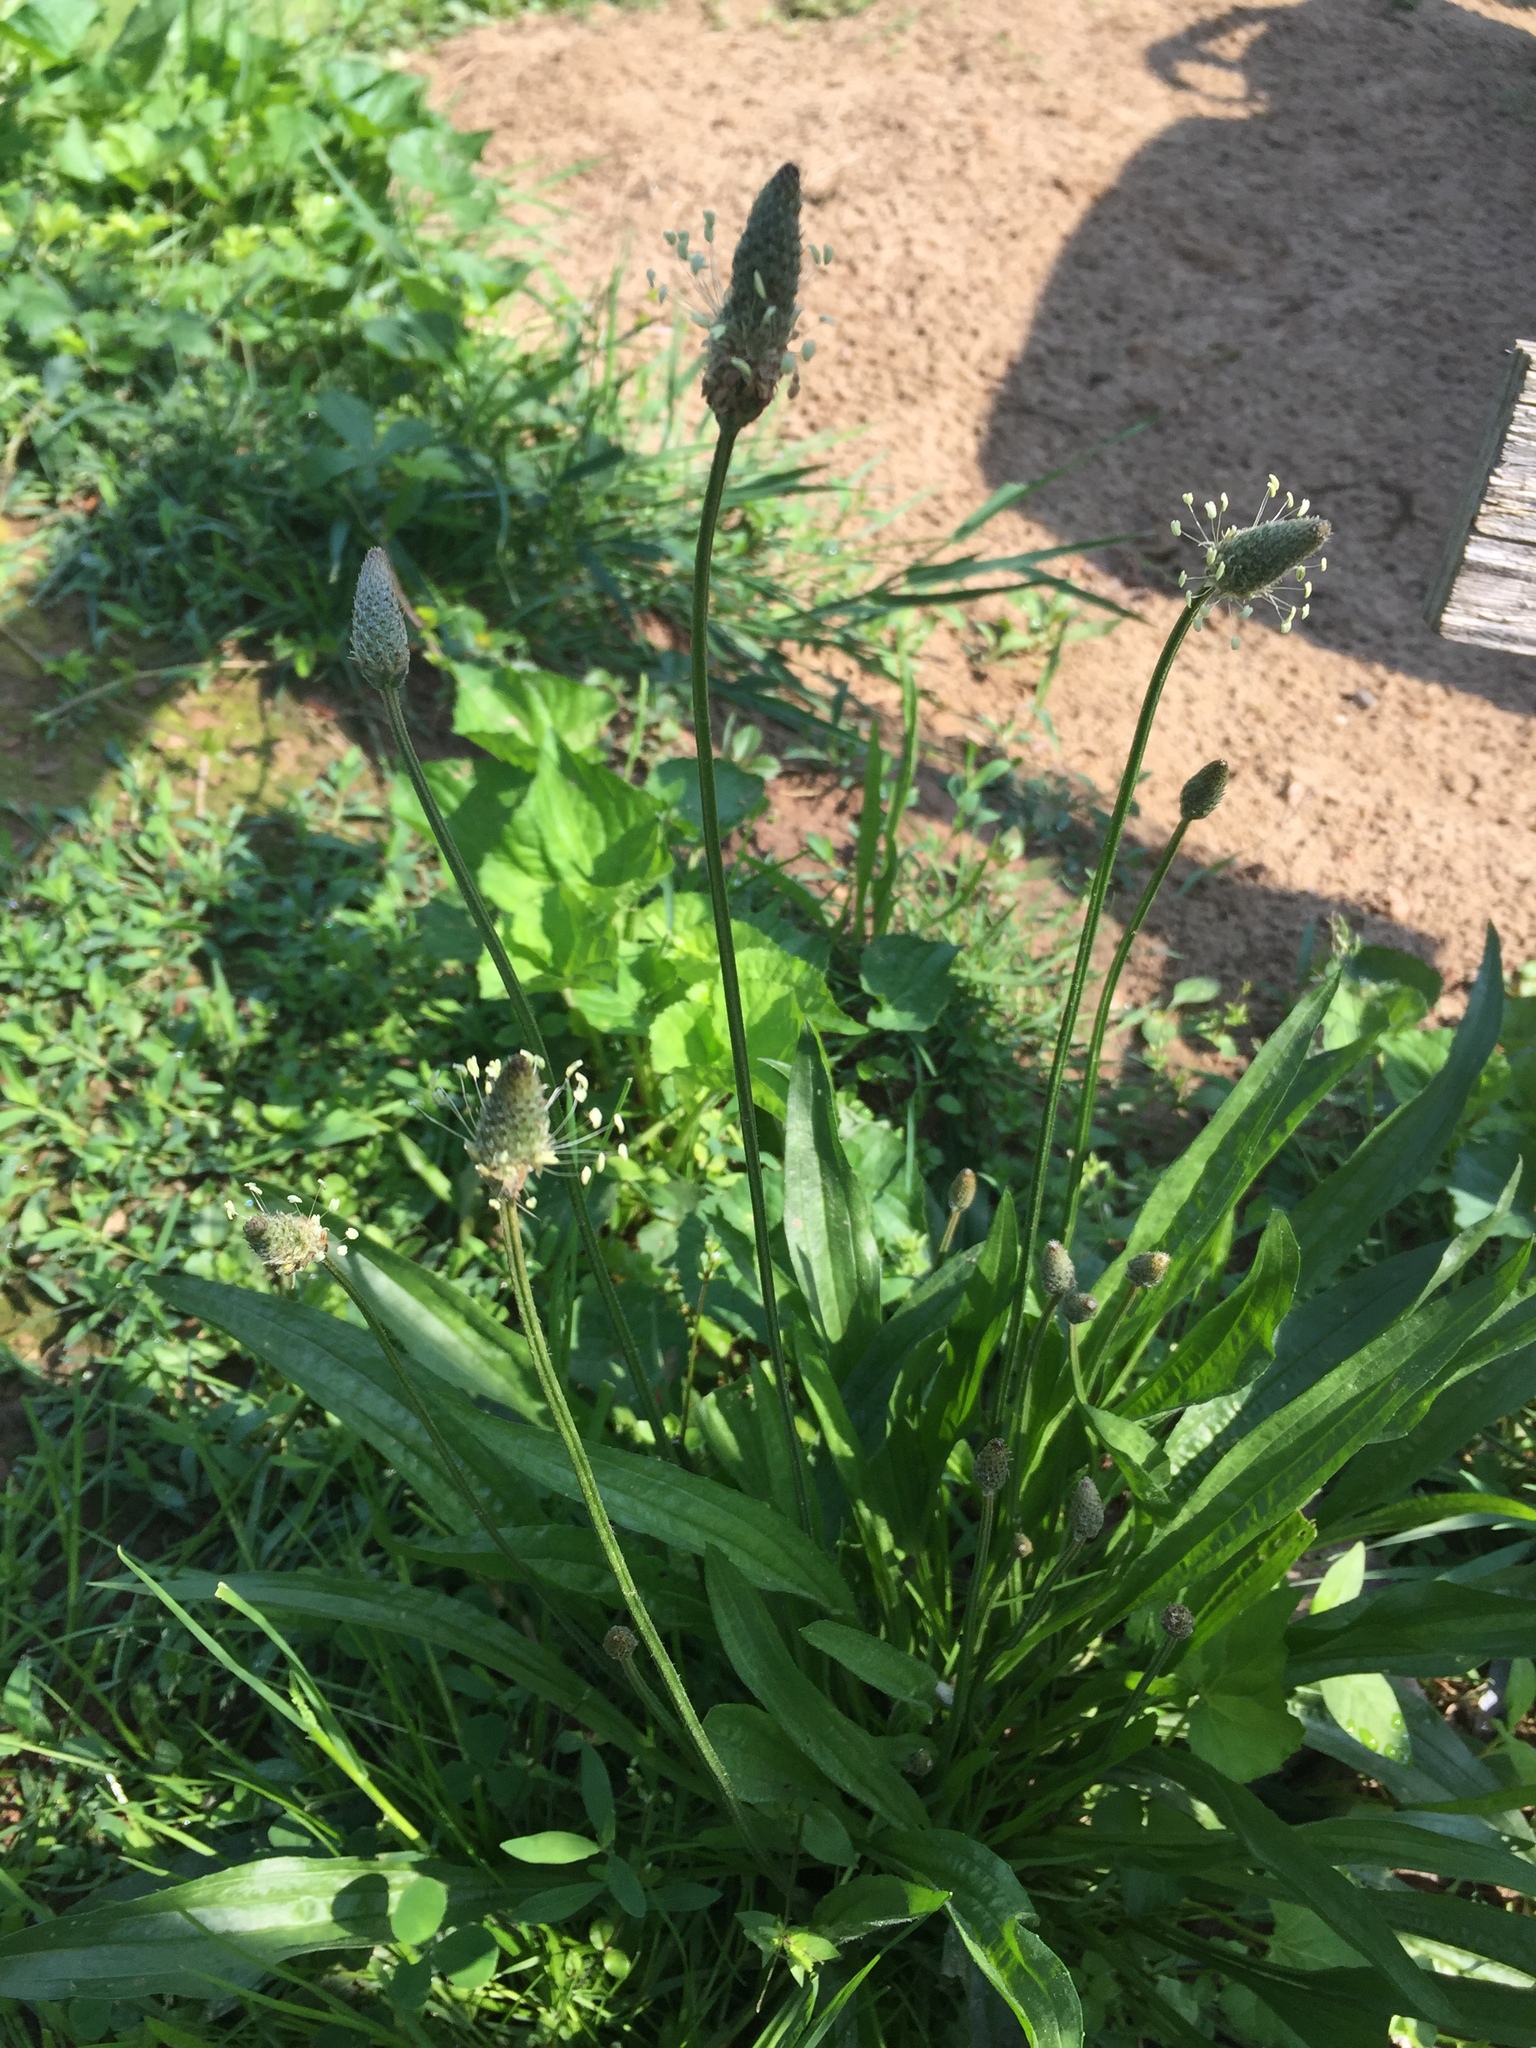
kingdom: Plantae
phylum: Tracheophyta
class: Magnoliopsida
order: Lamiales
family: Plantaginaceae
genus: Plantago
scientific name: Plantago lanceolata
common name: Ribwort plantain
